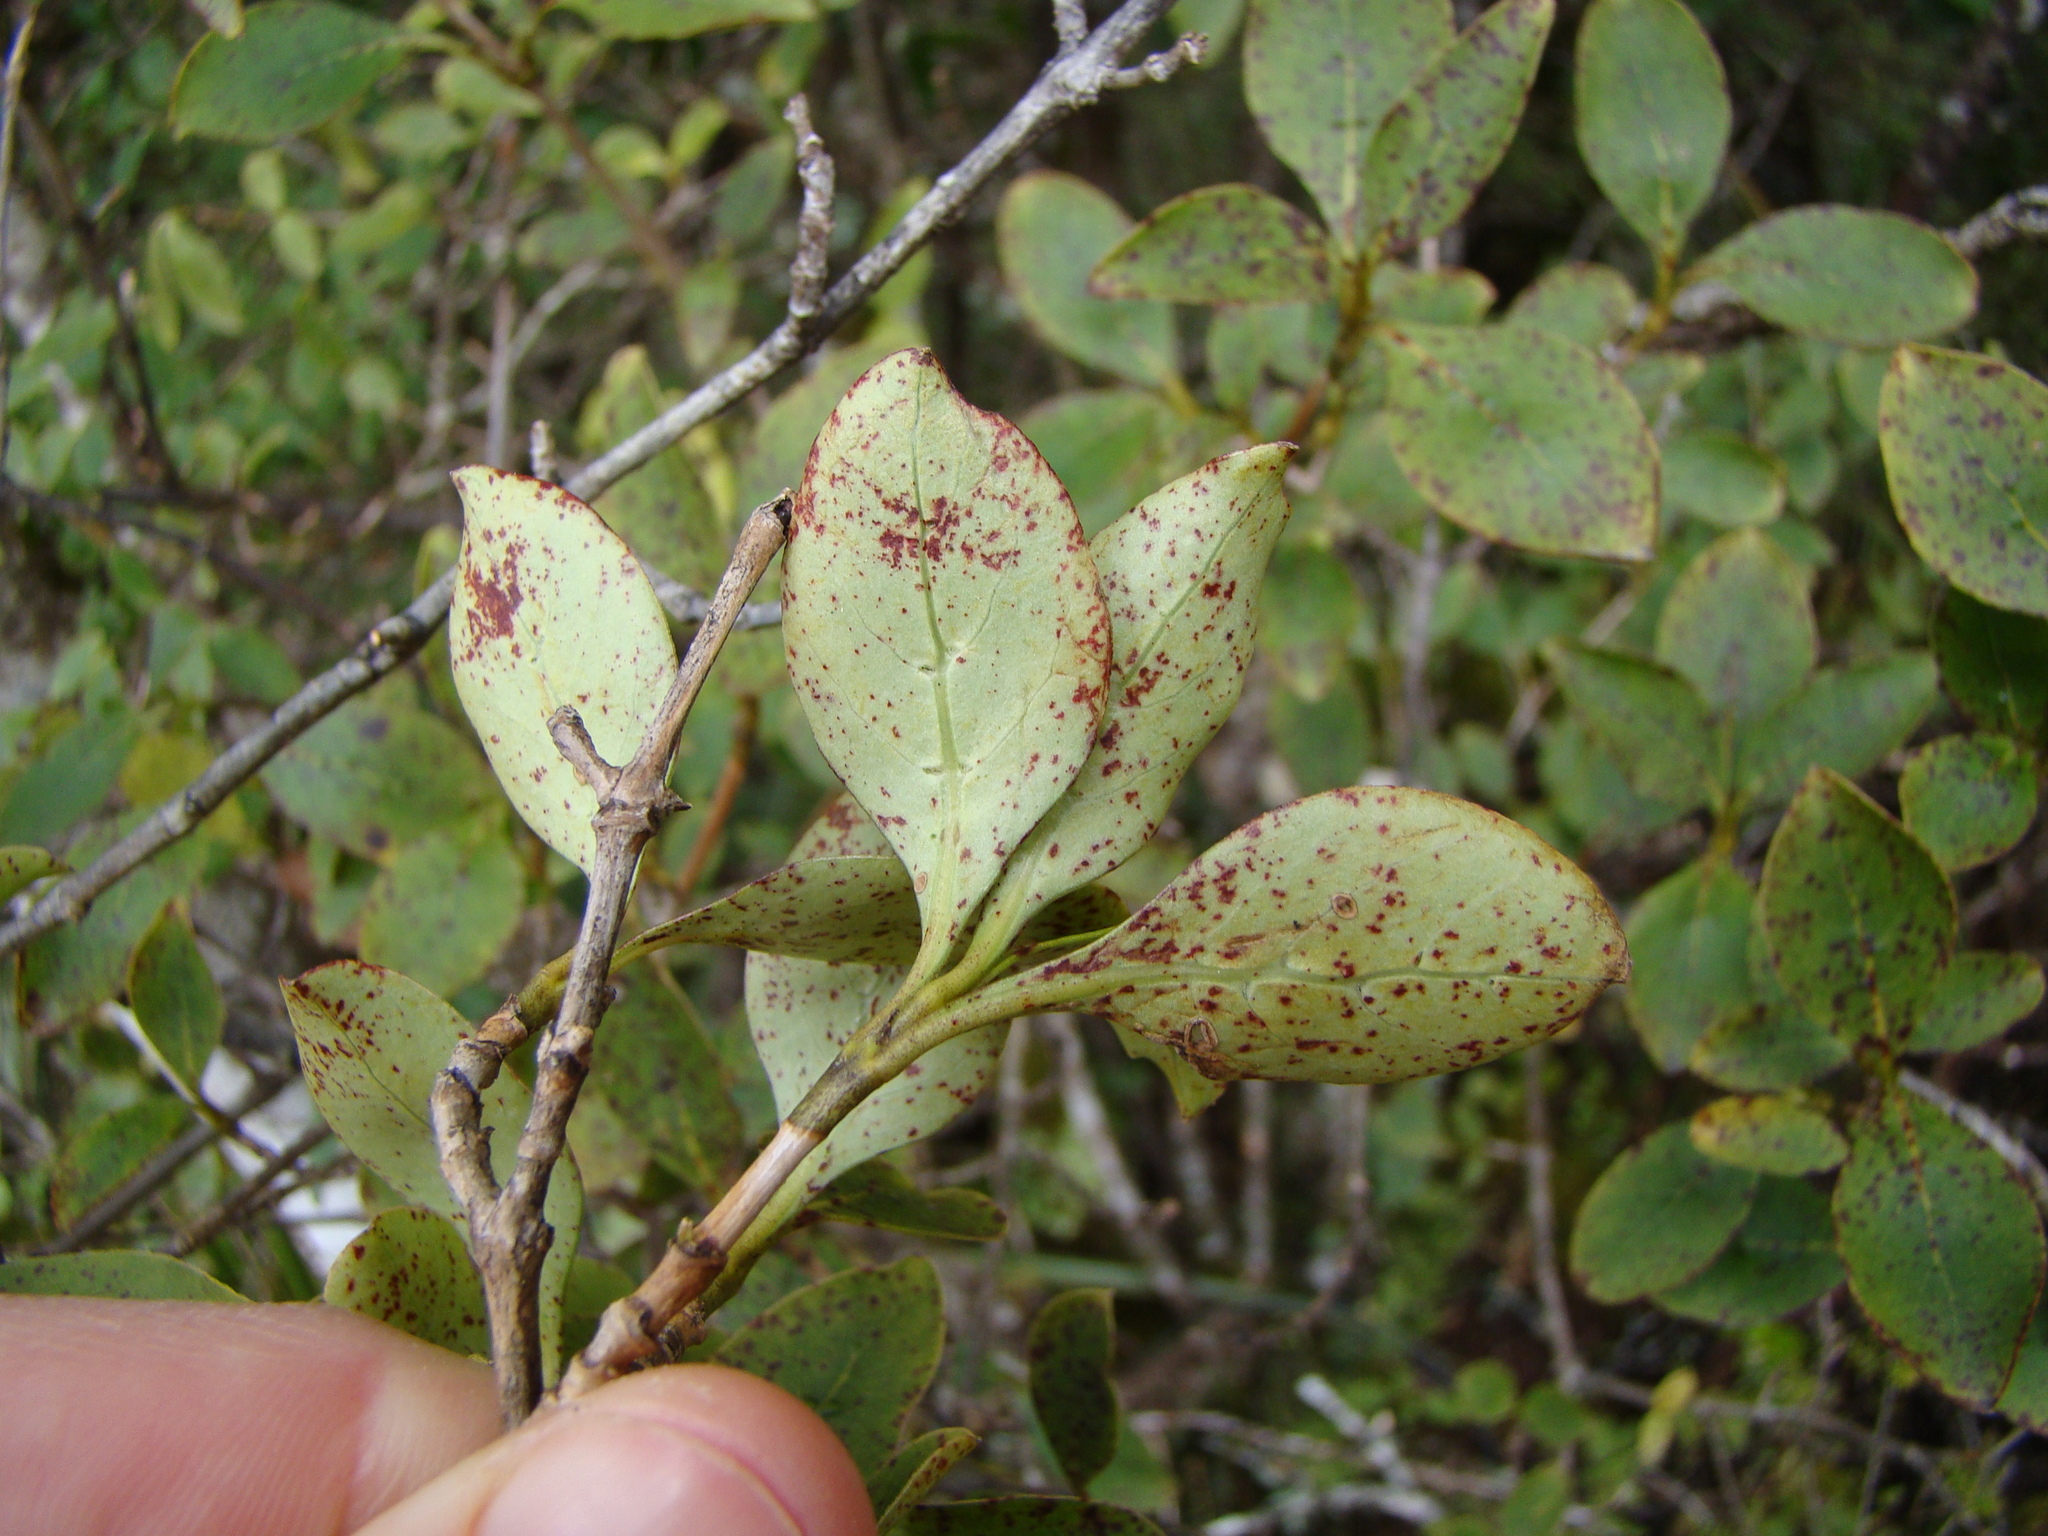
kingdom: Plantae
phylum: Tracheophyta
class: Magnoliopsida
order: Gentianales
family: Rubiaceae
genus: Coprosma
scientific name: Coprosma foetidissima
